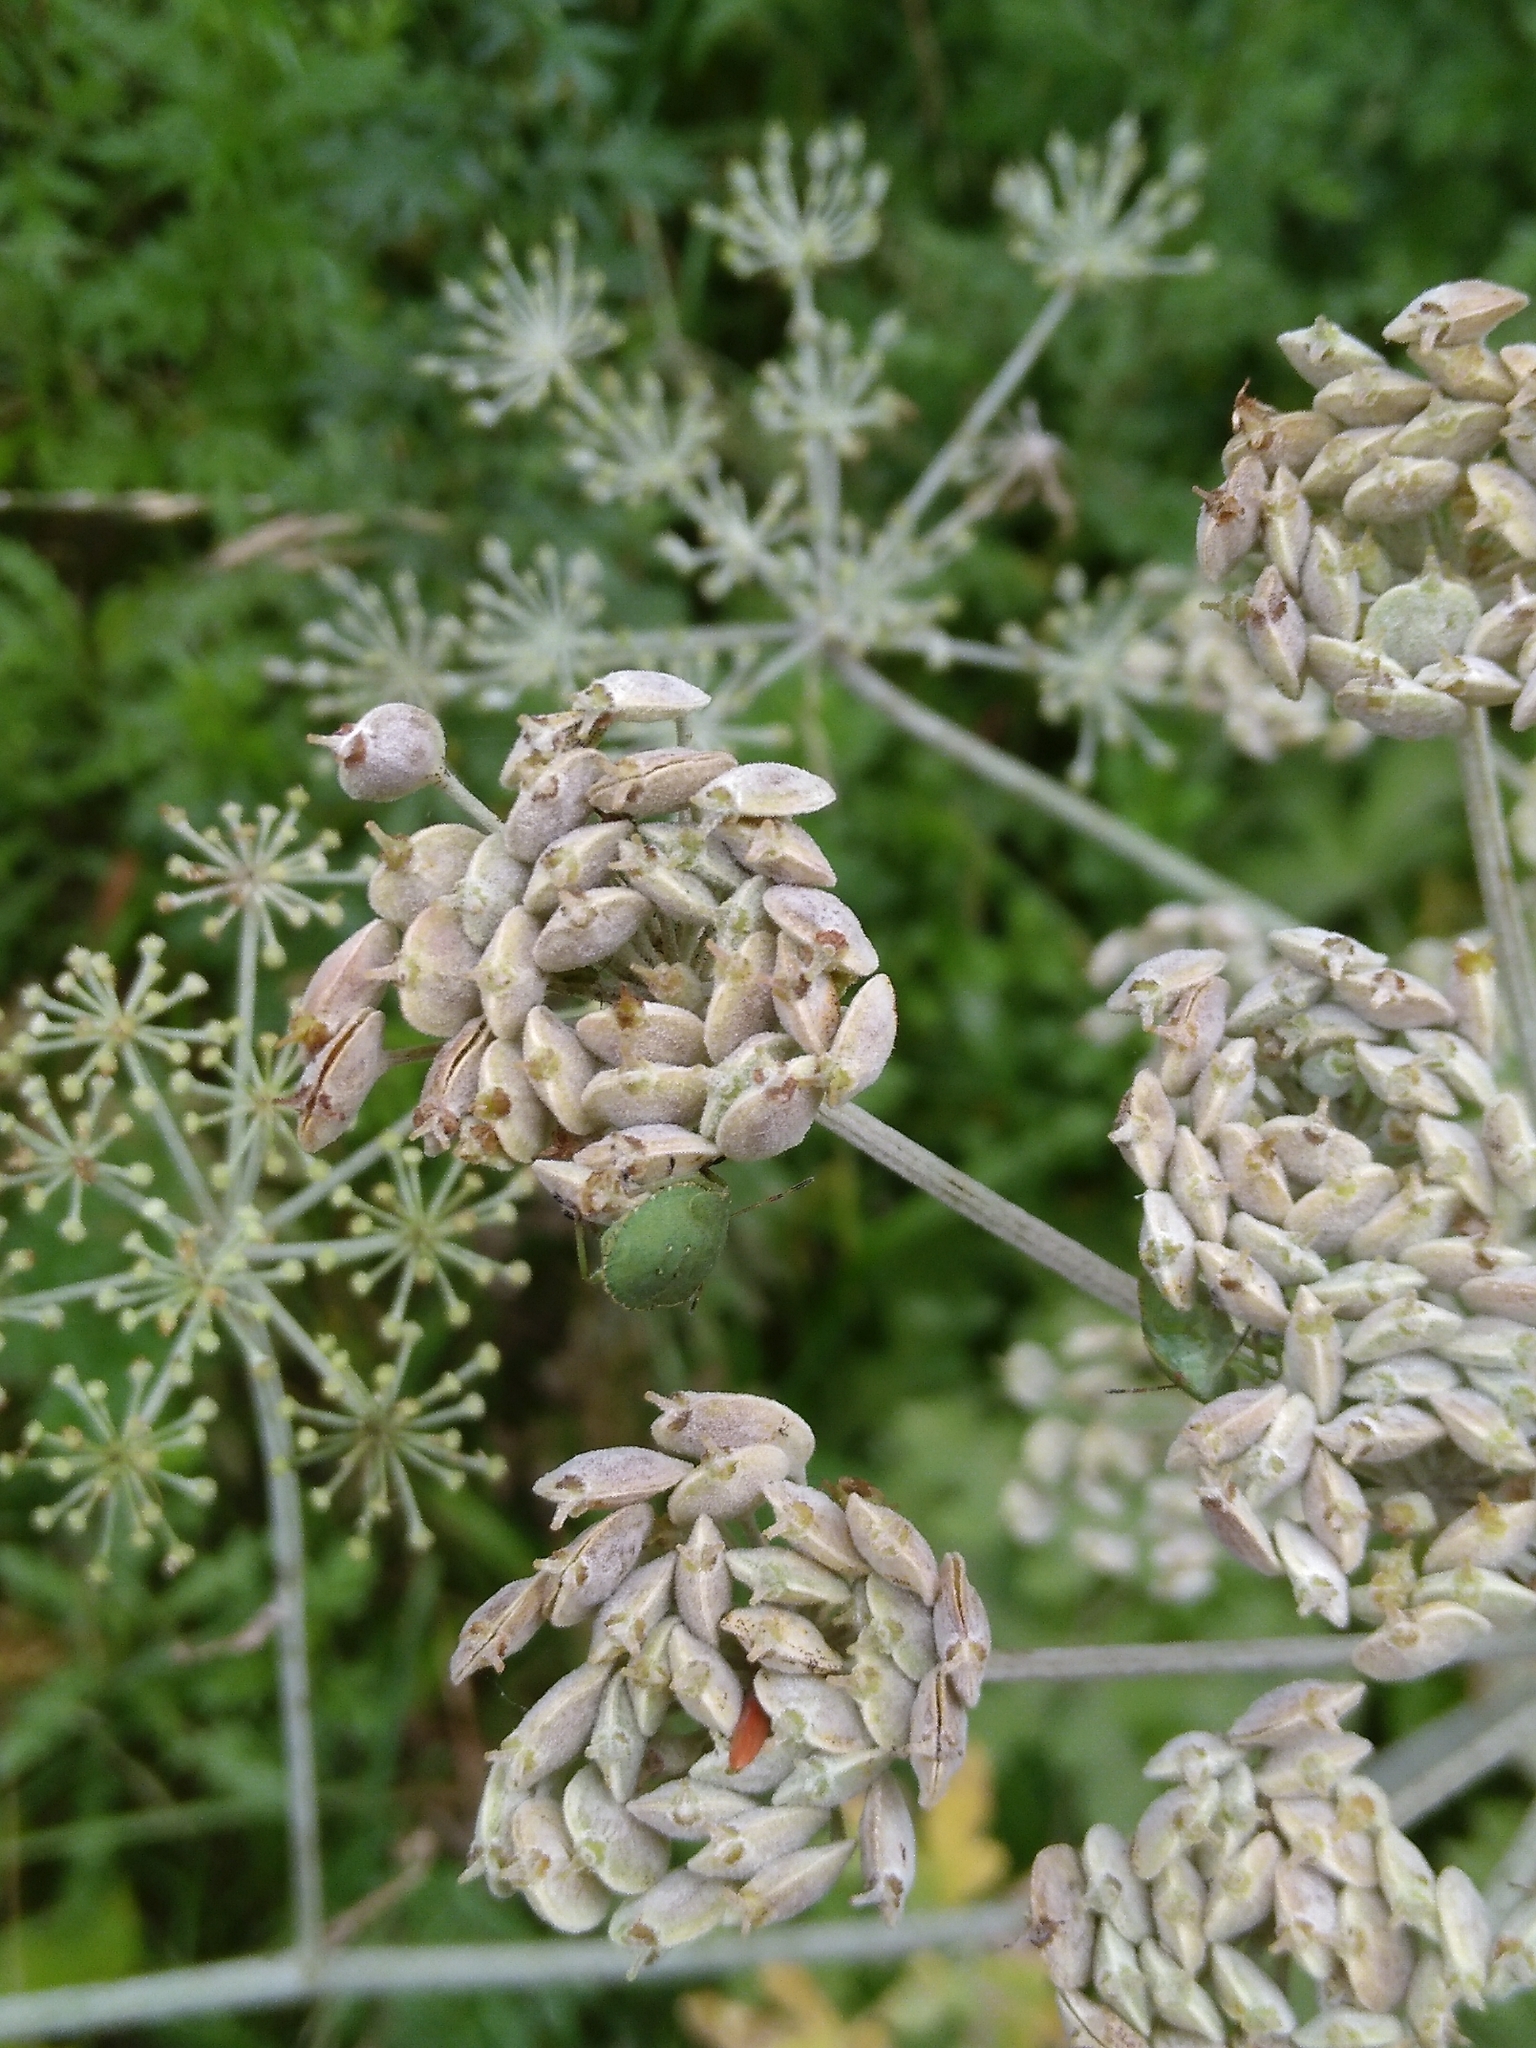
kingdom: Animalia
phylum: Arthropoda
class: Insecta
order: Hemiptera
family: Pentatomidae
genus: Palomena
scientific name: Palomena prasina
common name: Green shieldbug
